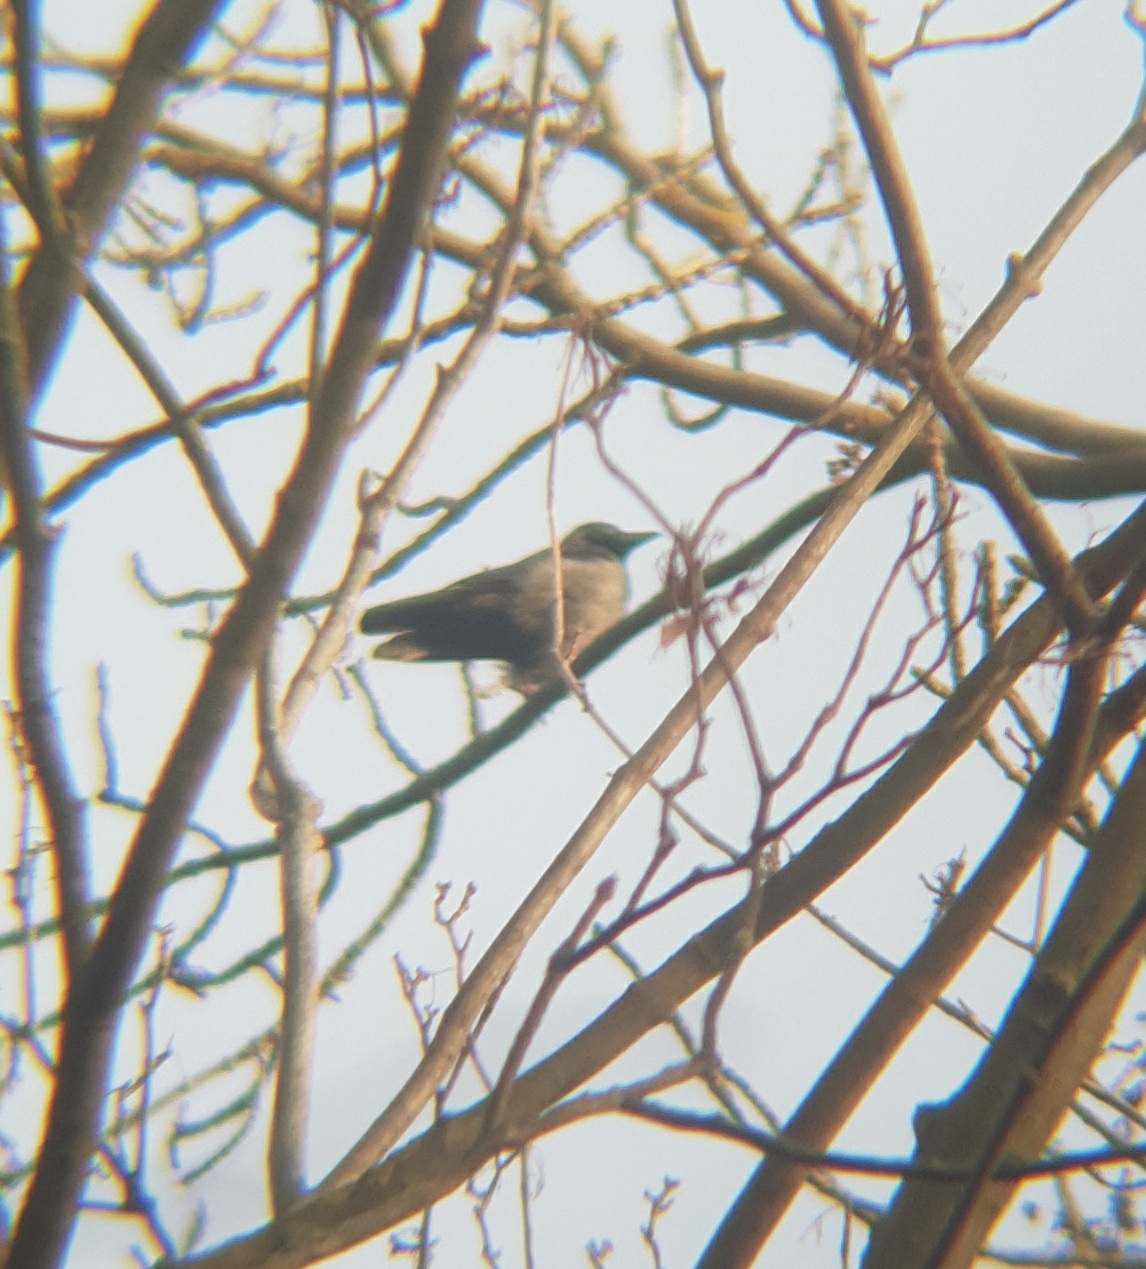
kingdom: Animalia
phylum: Chordata
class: Aves
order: Passeriformes
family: Corvidae
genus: Corvus
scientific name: Corvus
